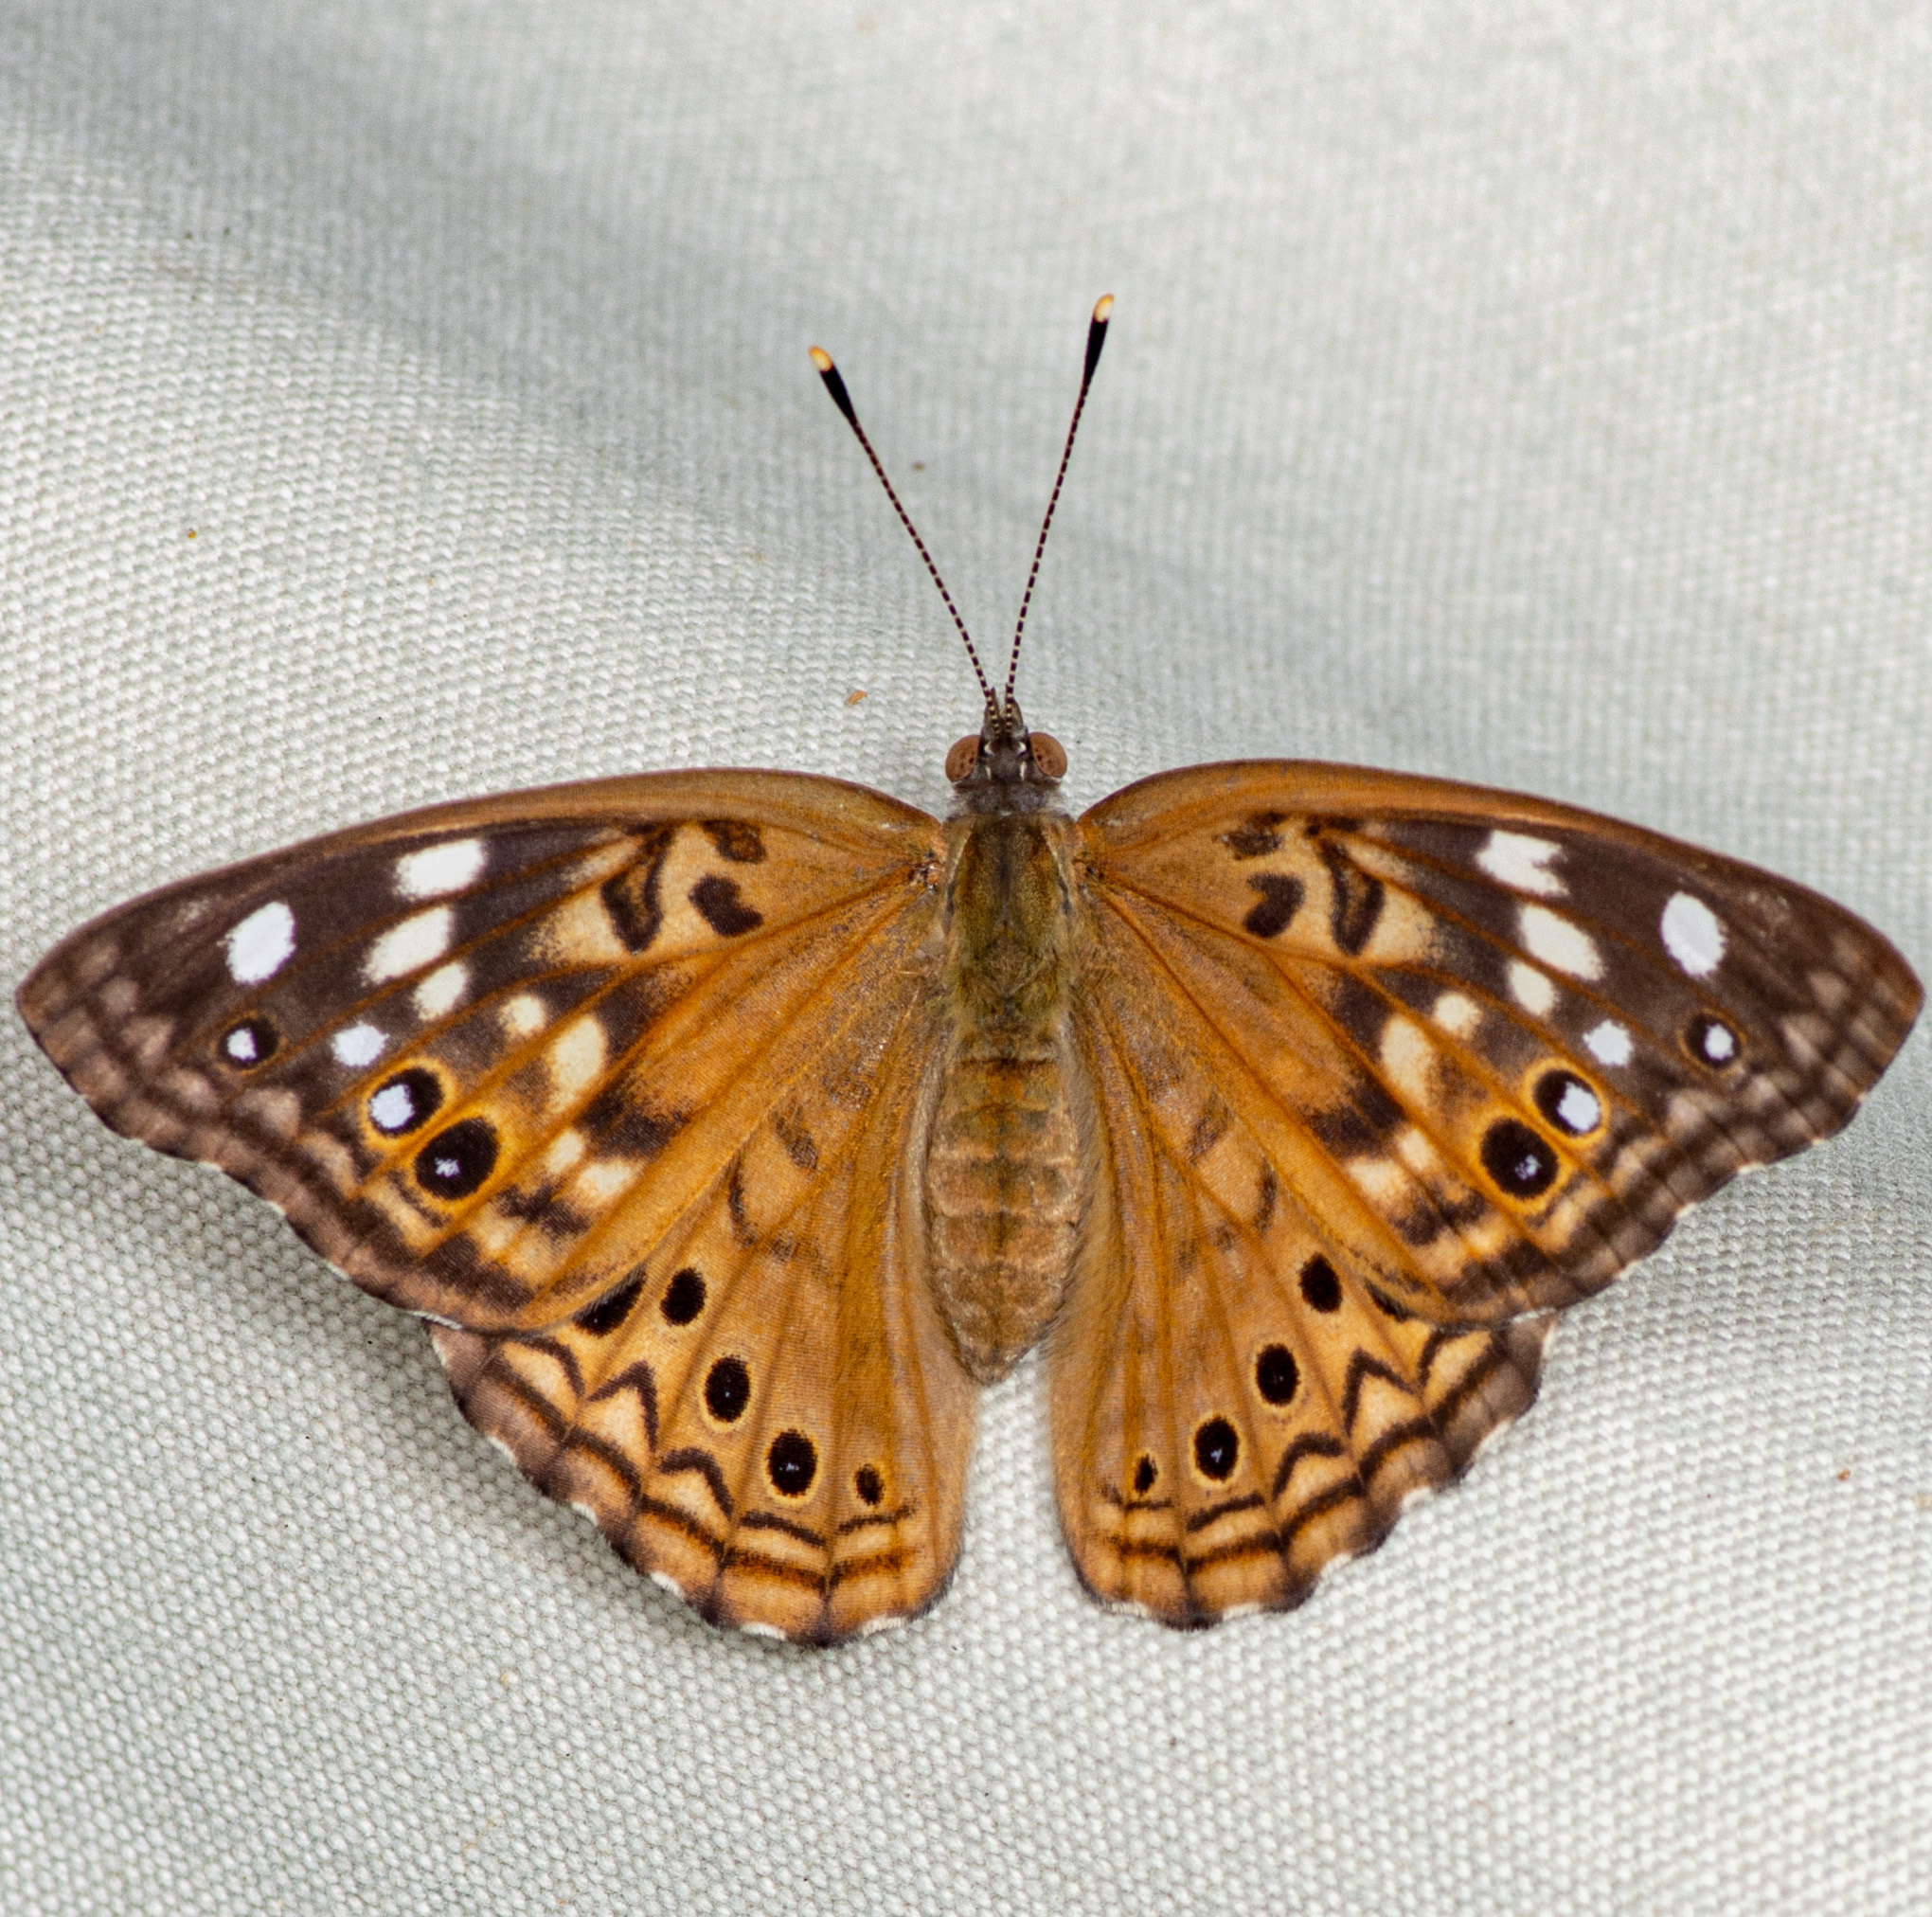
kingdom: Animalia
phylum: Arthropoda
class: Insecta
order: Lepidoptera
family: Nymphalidae
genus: Asterocampa
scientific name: Asterocampa celtis
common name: Hackberry emperor
